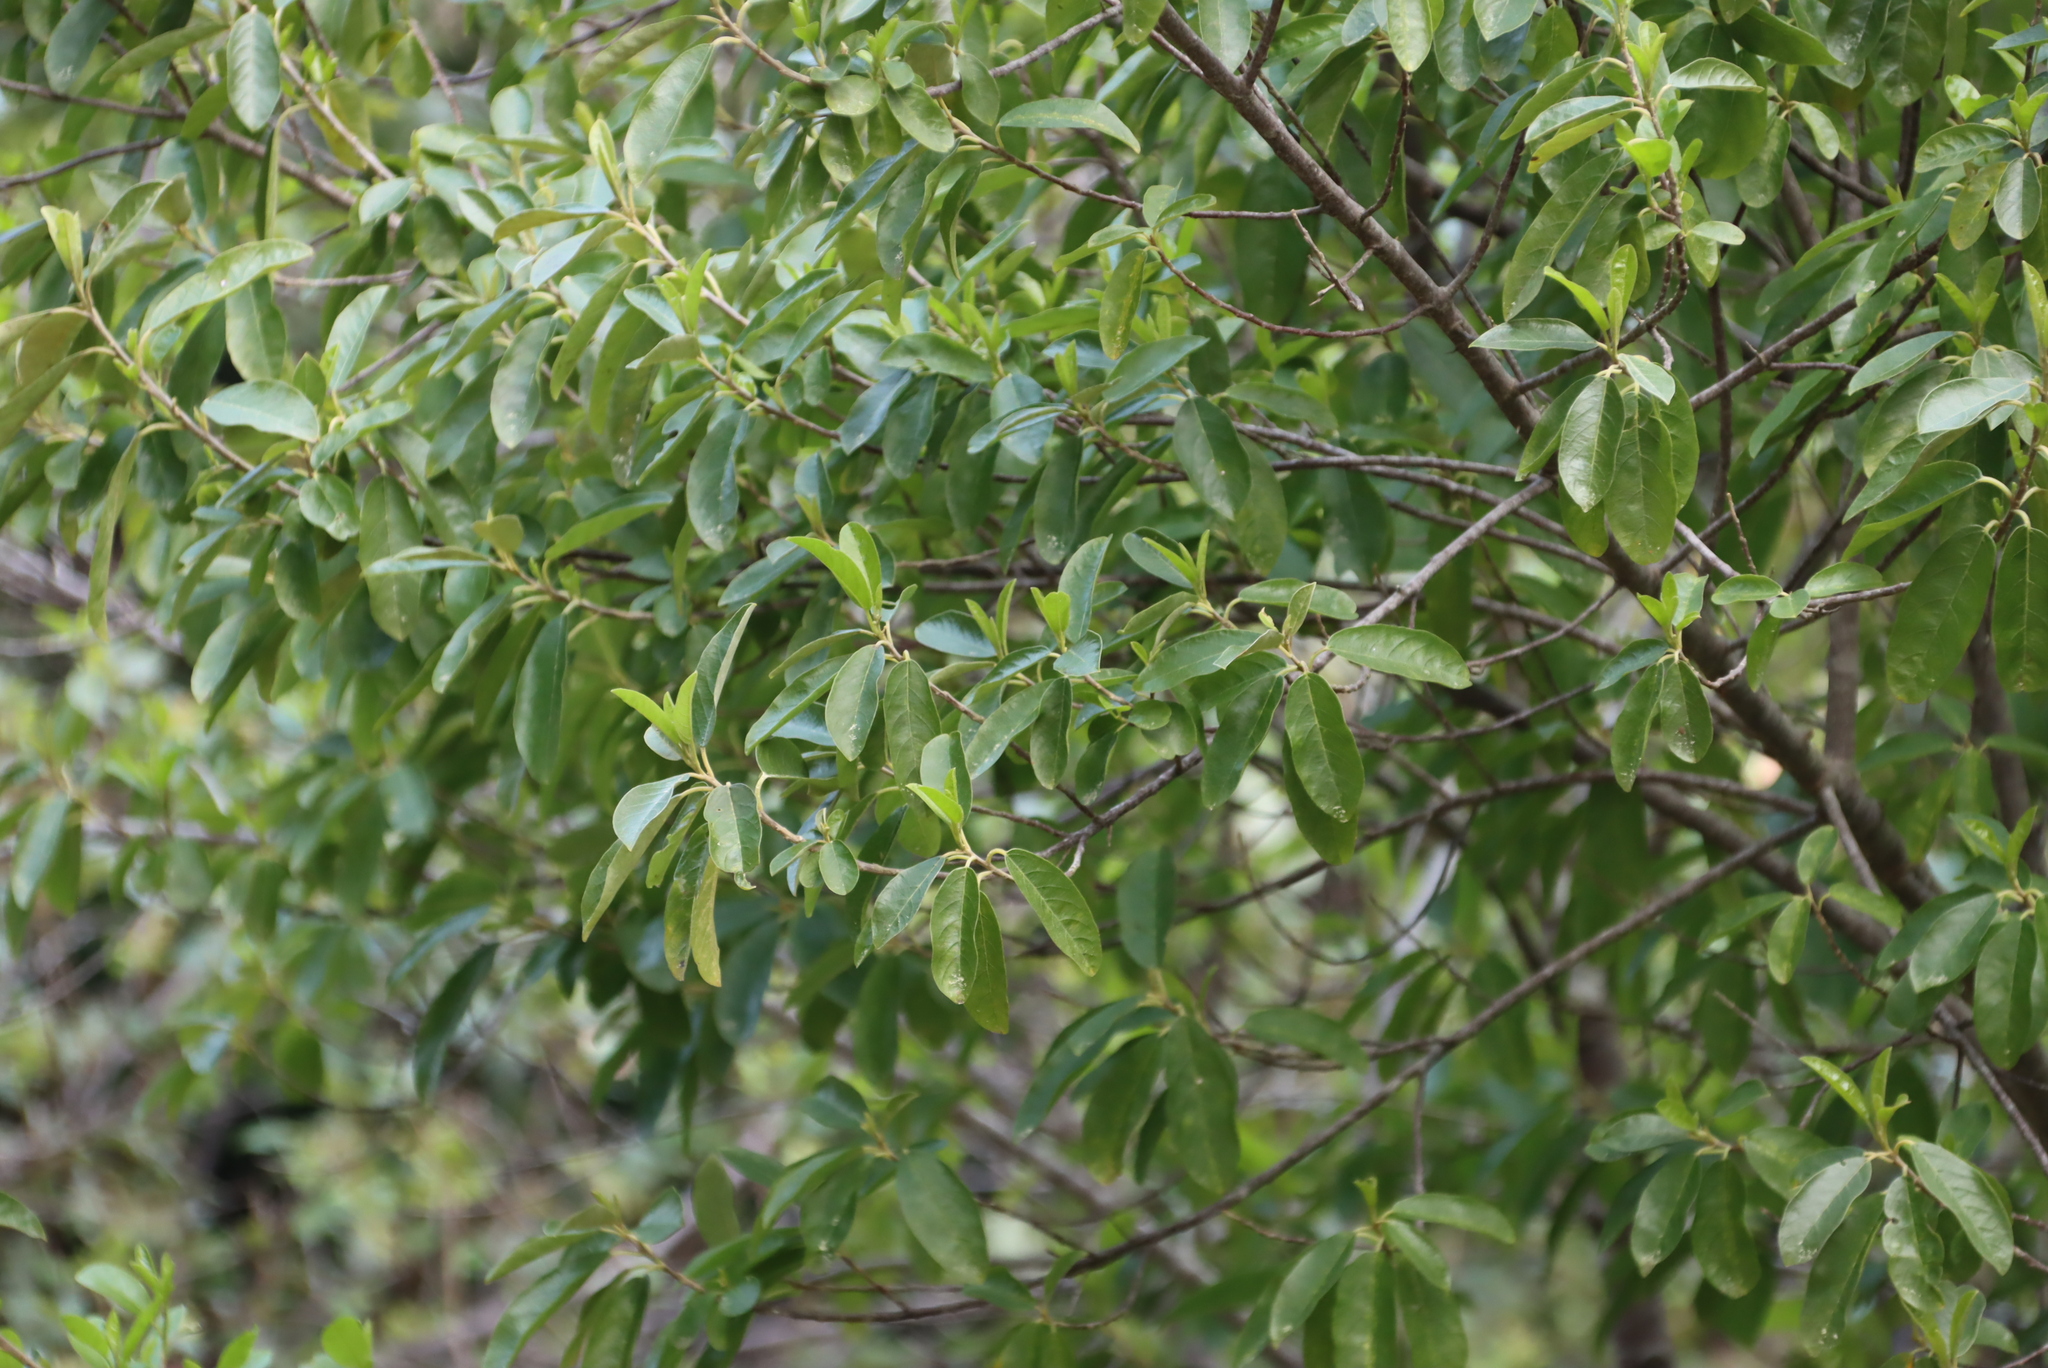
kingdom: Plantae
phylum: Tracheophyta
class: Magnoliopsida
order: Malpighiales
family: Achariaceae
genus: Kiggelaria
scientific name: Kiggelaria africana
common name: Wild peach
